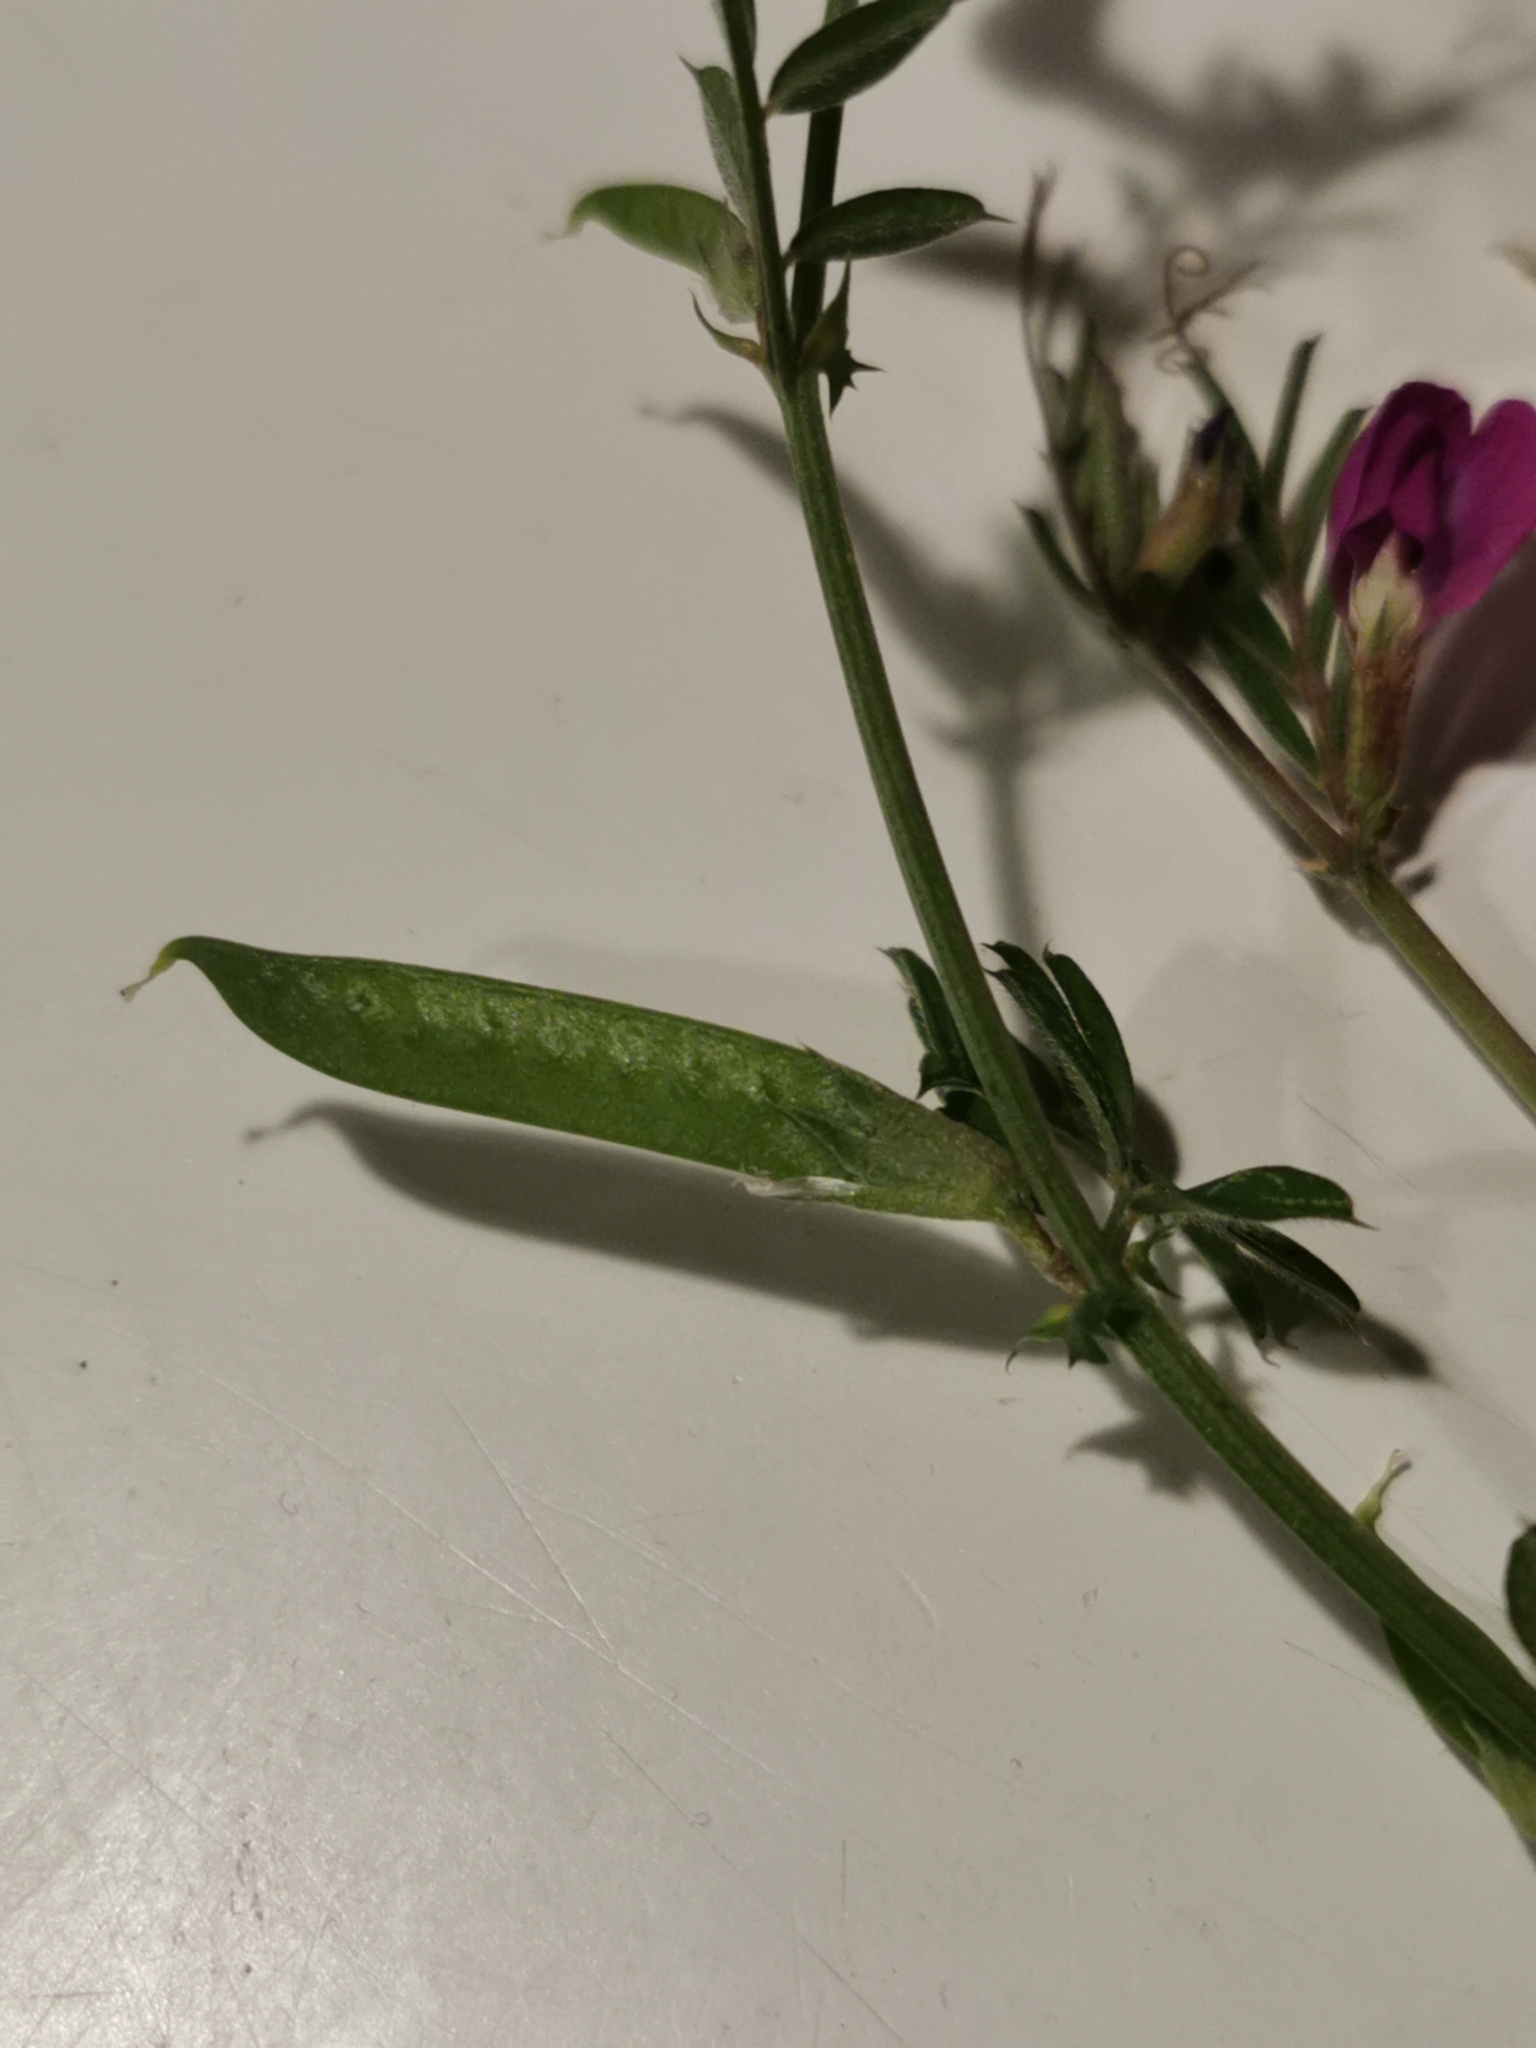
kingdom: Plantae
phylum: Tracheophyta
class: Magnoliopsida
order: Fabales
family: Fabaceae
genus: Vicia
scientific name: Vicia sativa
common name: Garden vetch
